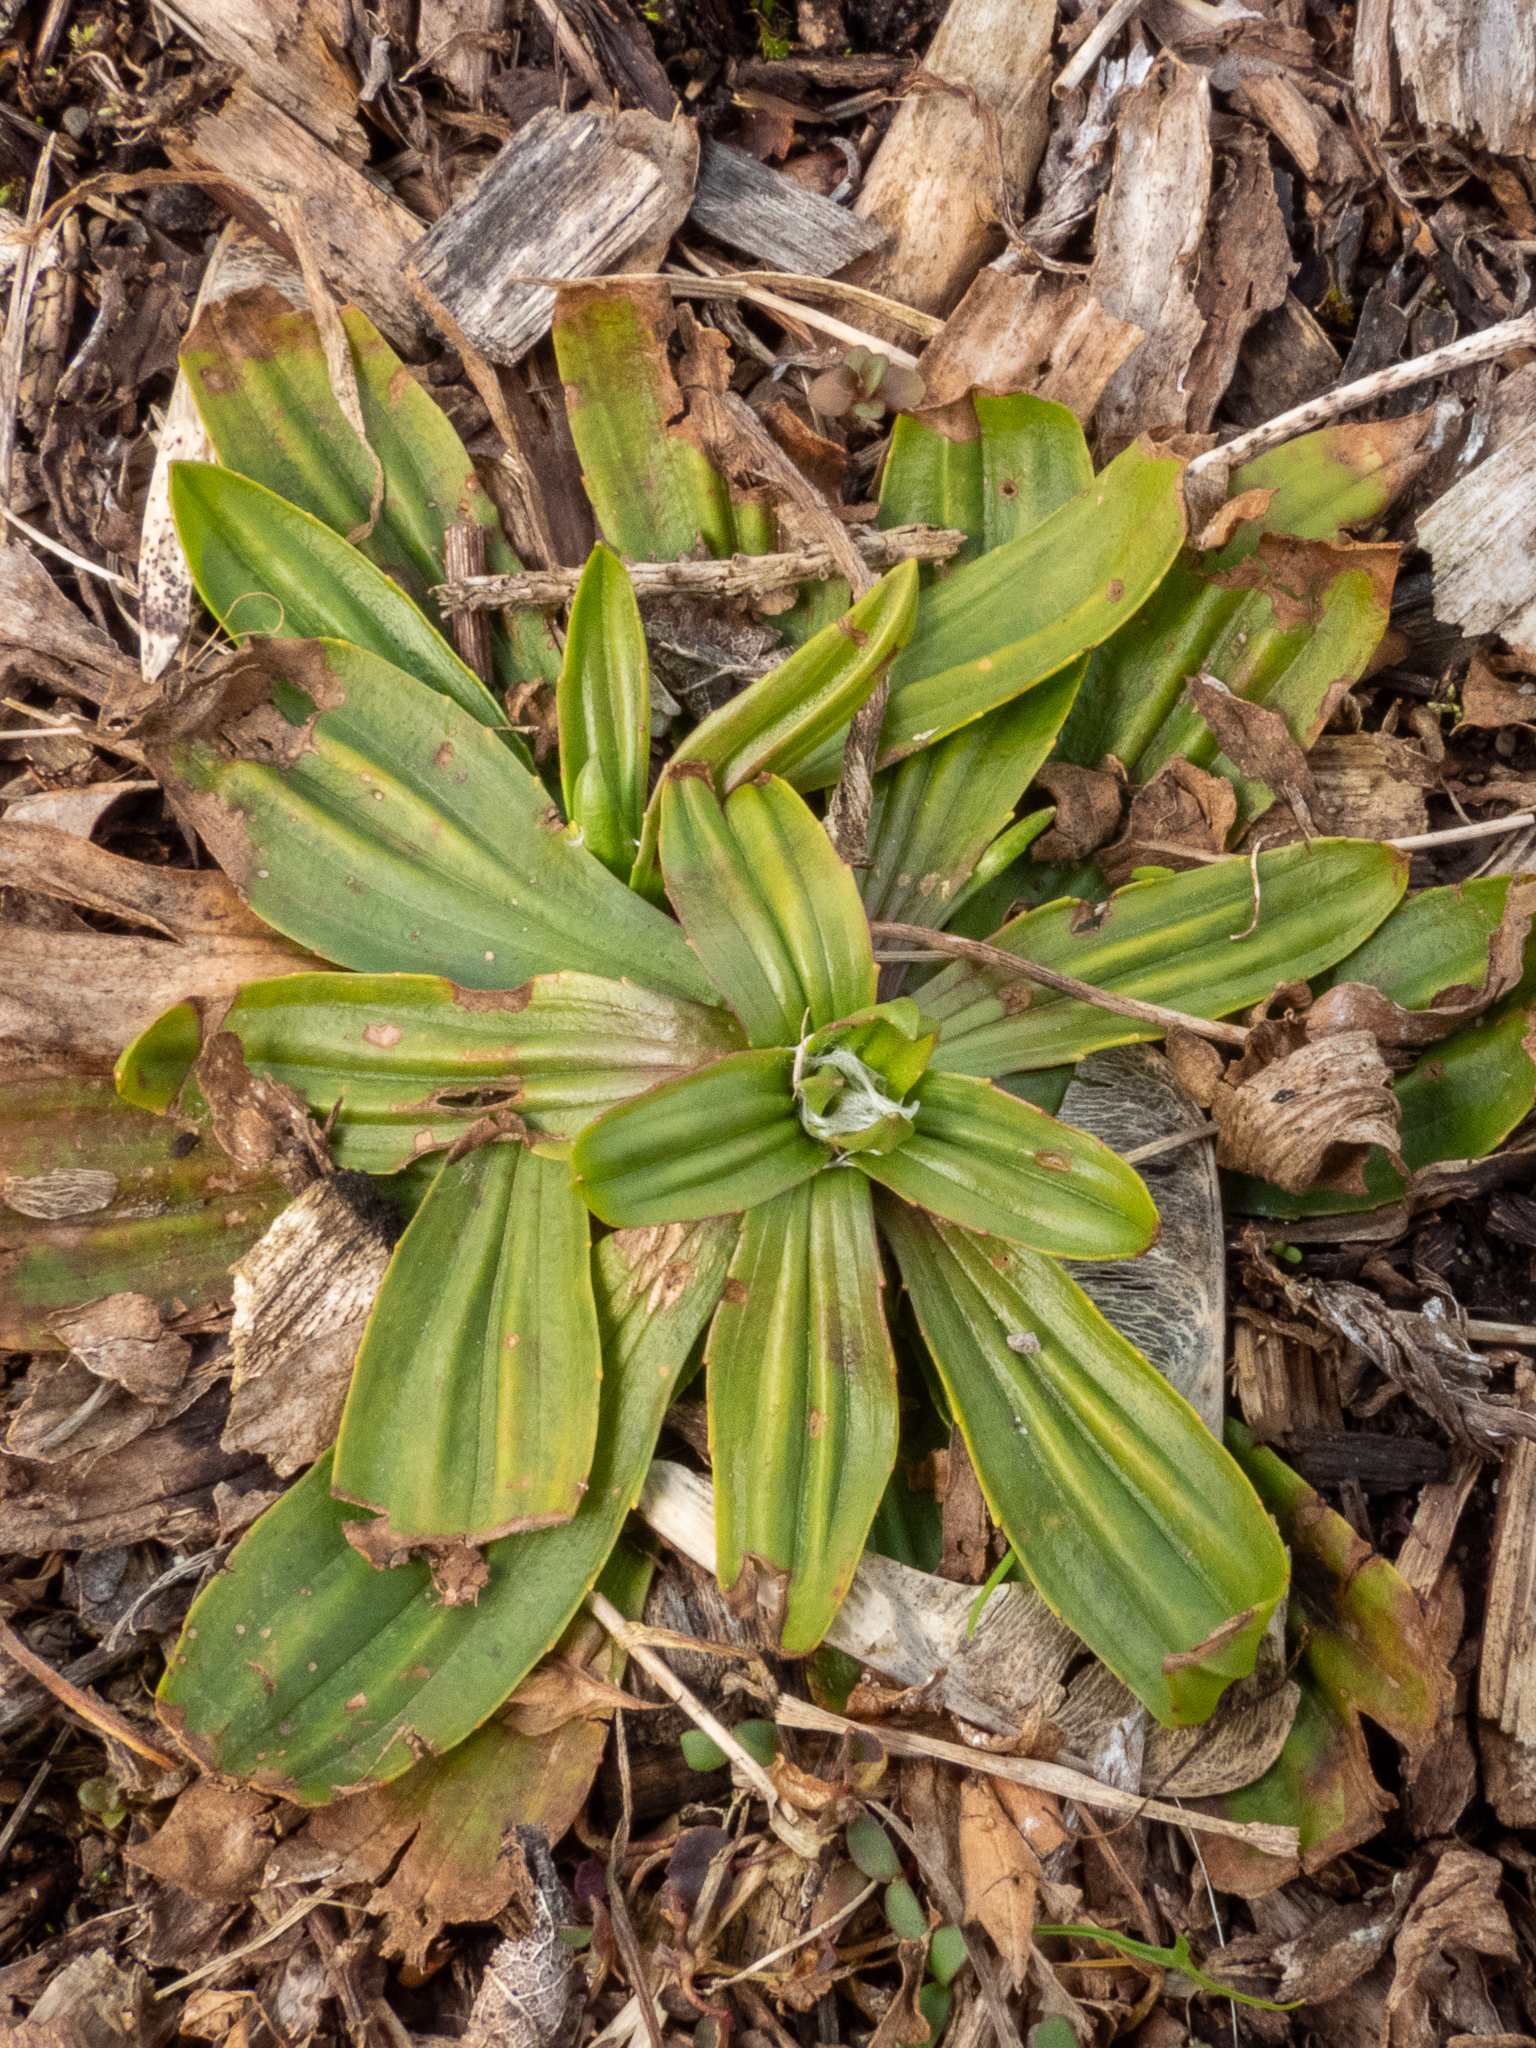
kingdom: Plantae
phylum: Tracheophyta
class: Magnoliopsida
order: Lamiales
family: Plantaginaceae
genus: Plantago
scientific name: Plantago lanceolata
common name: Ribwort plantain
